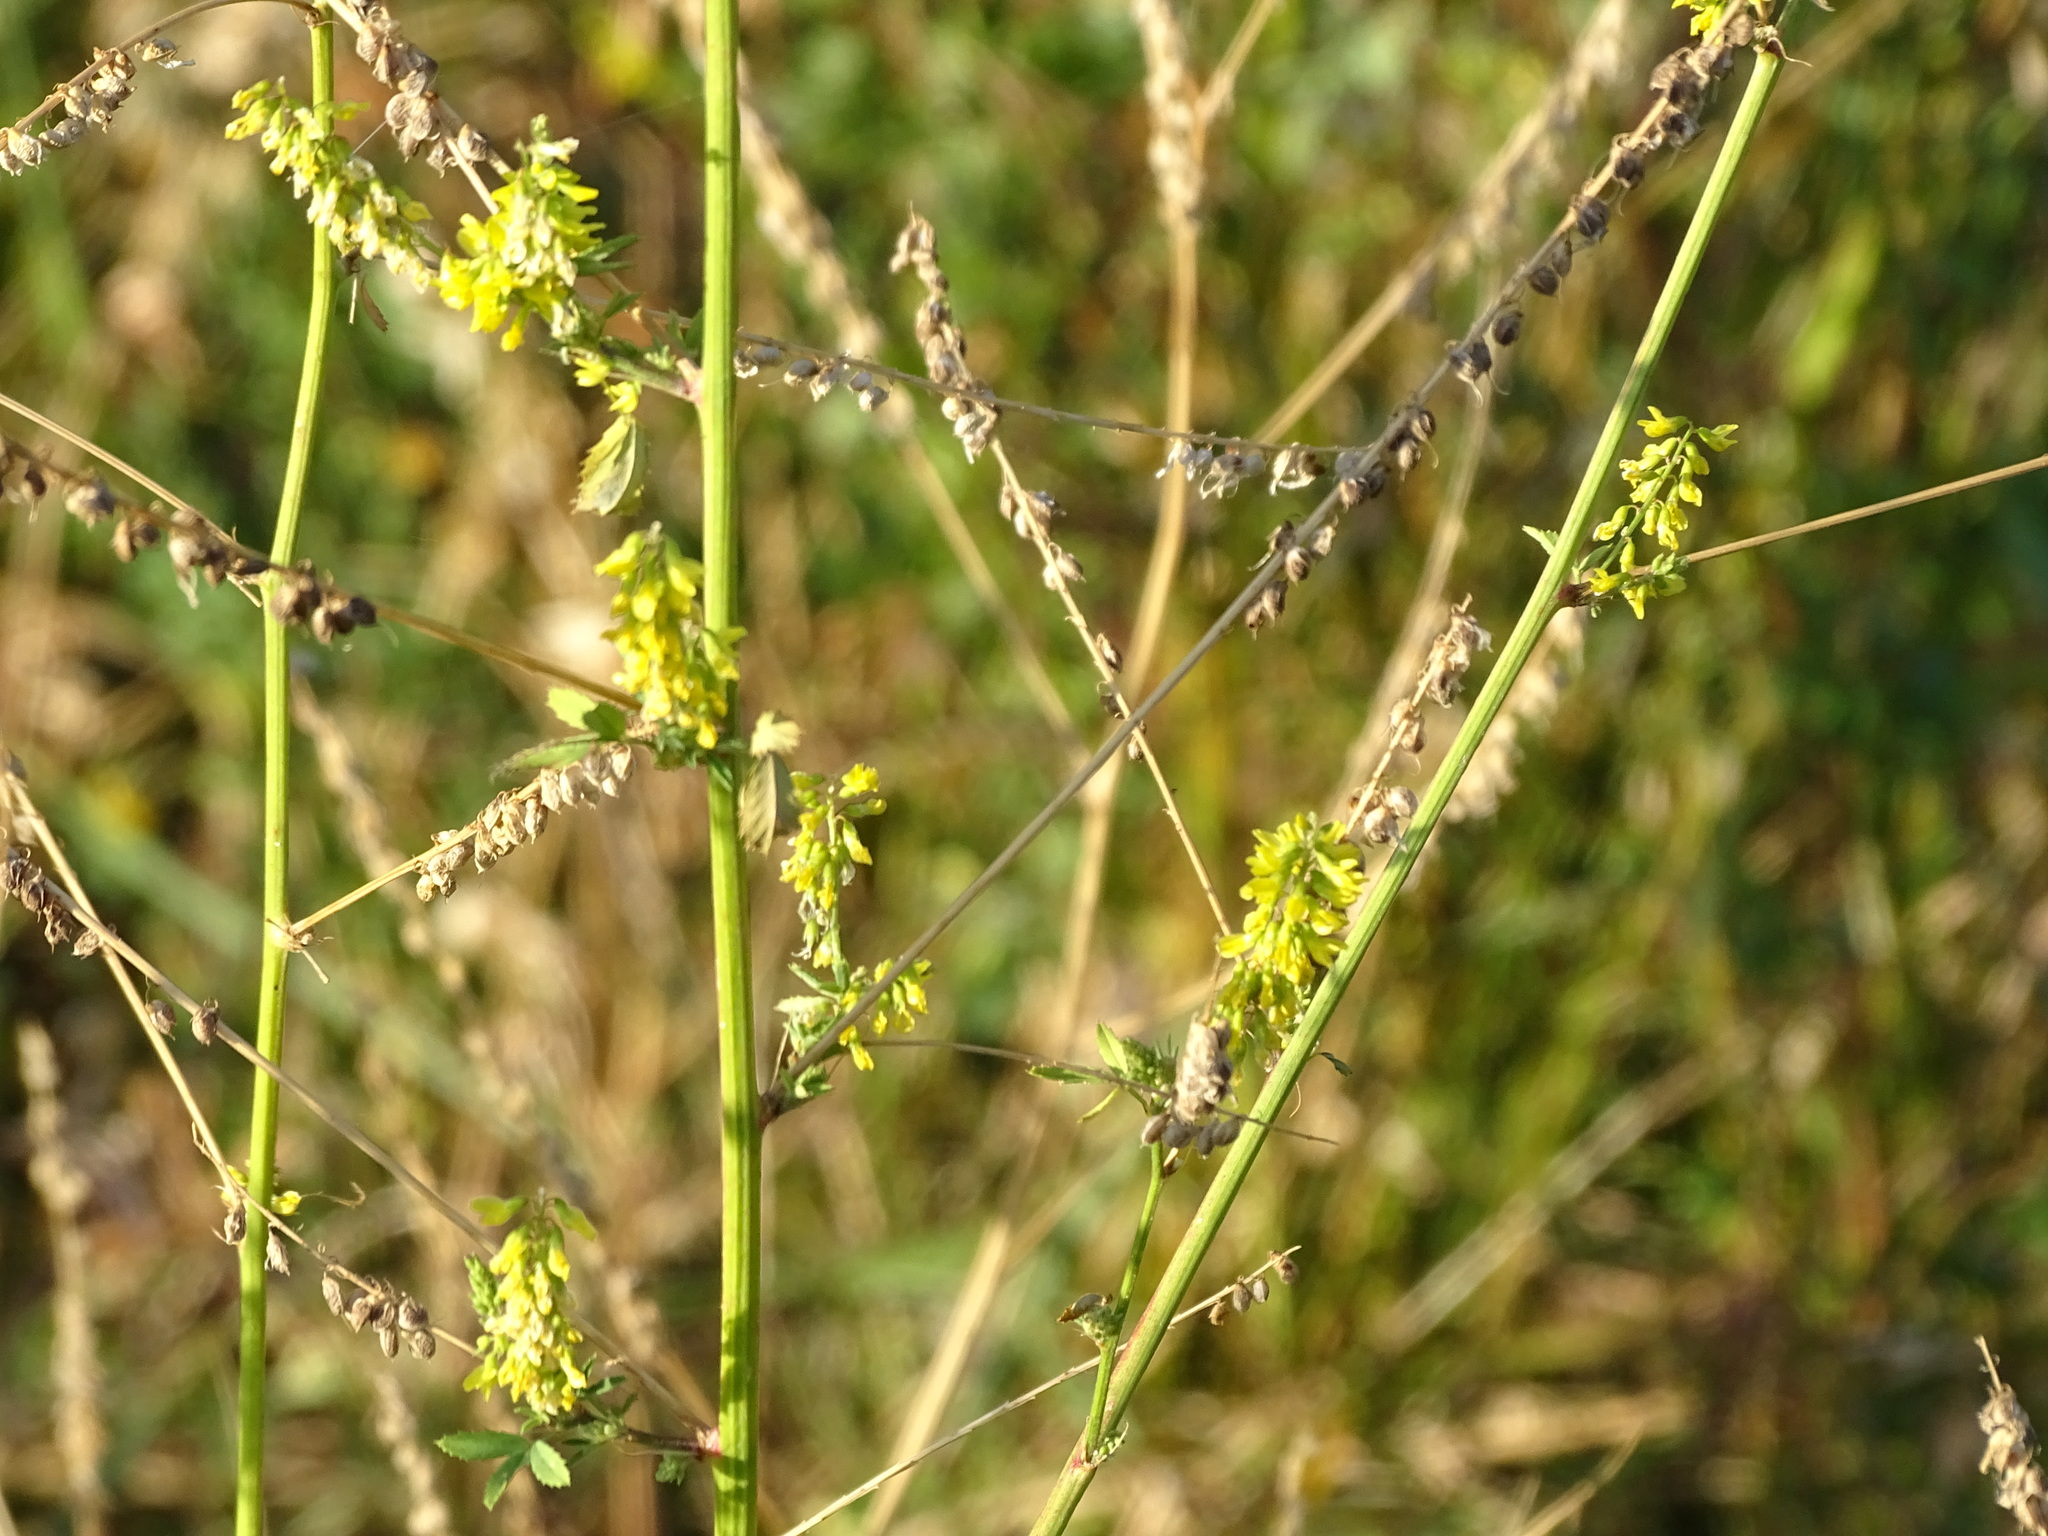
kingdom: Plantae
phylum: Tracheophyta
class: Magnoliopsida
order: Fabales
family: Fabaceae
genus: Melilotus
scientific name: Melilotus officinalis
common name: Sweetclover
